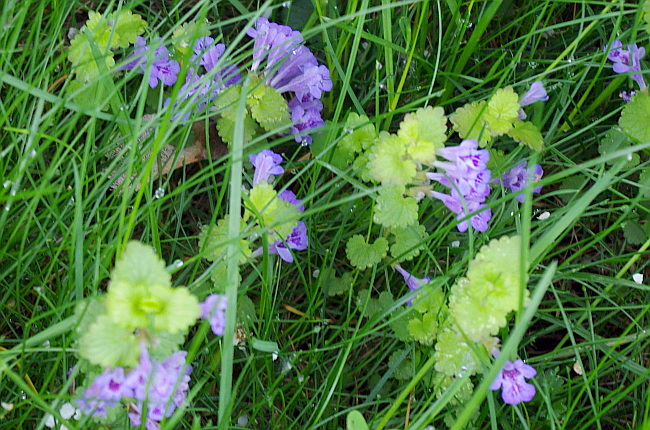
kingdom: Plantae
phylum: Tracheophyta
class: Magnoliopsida
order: Lamiales
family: Lamiaceae
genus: Glechoma
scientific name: Glechoma hederacea
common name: Ground ivy
